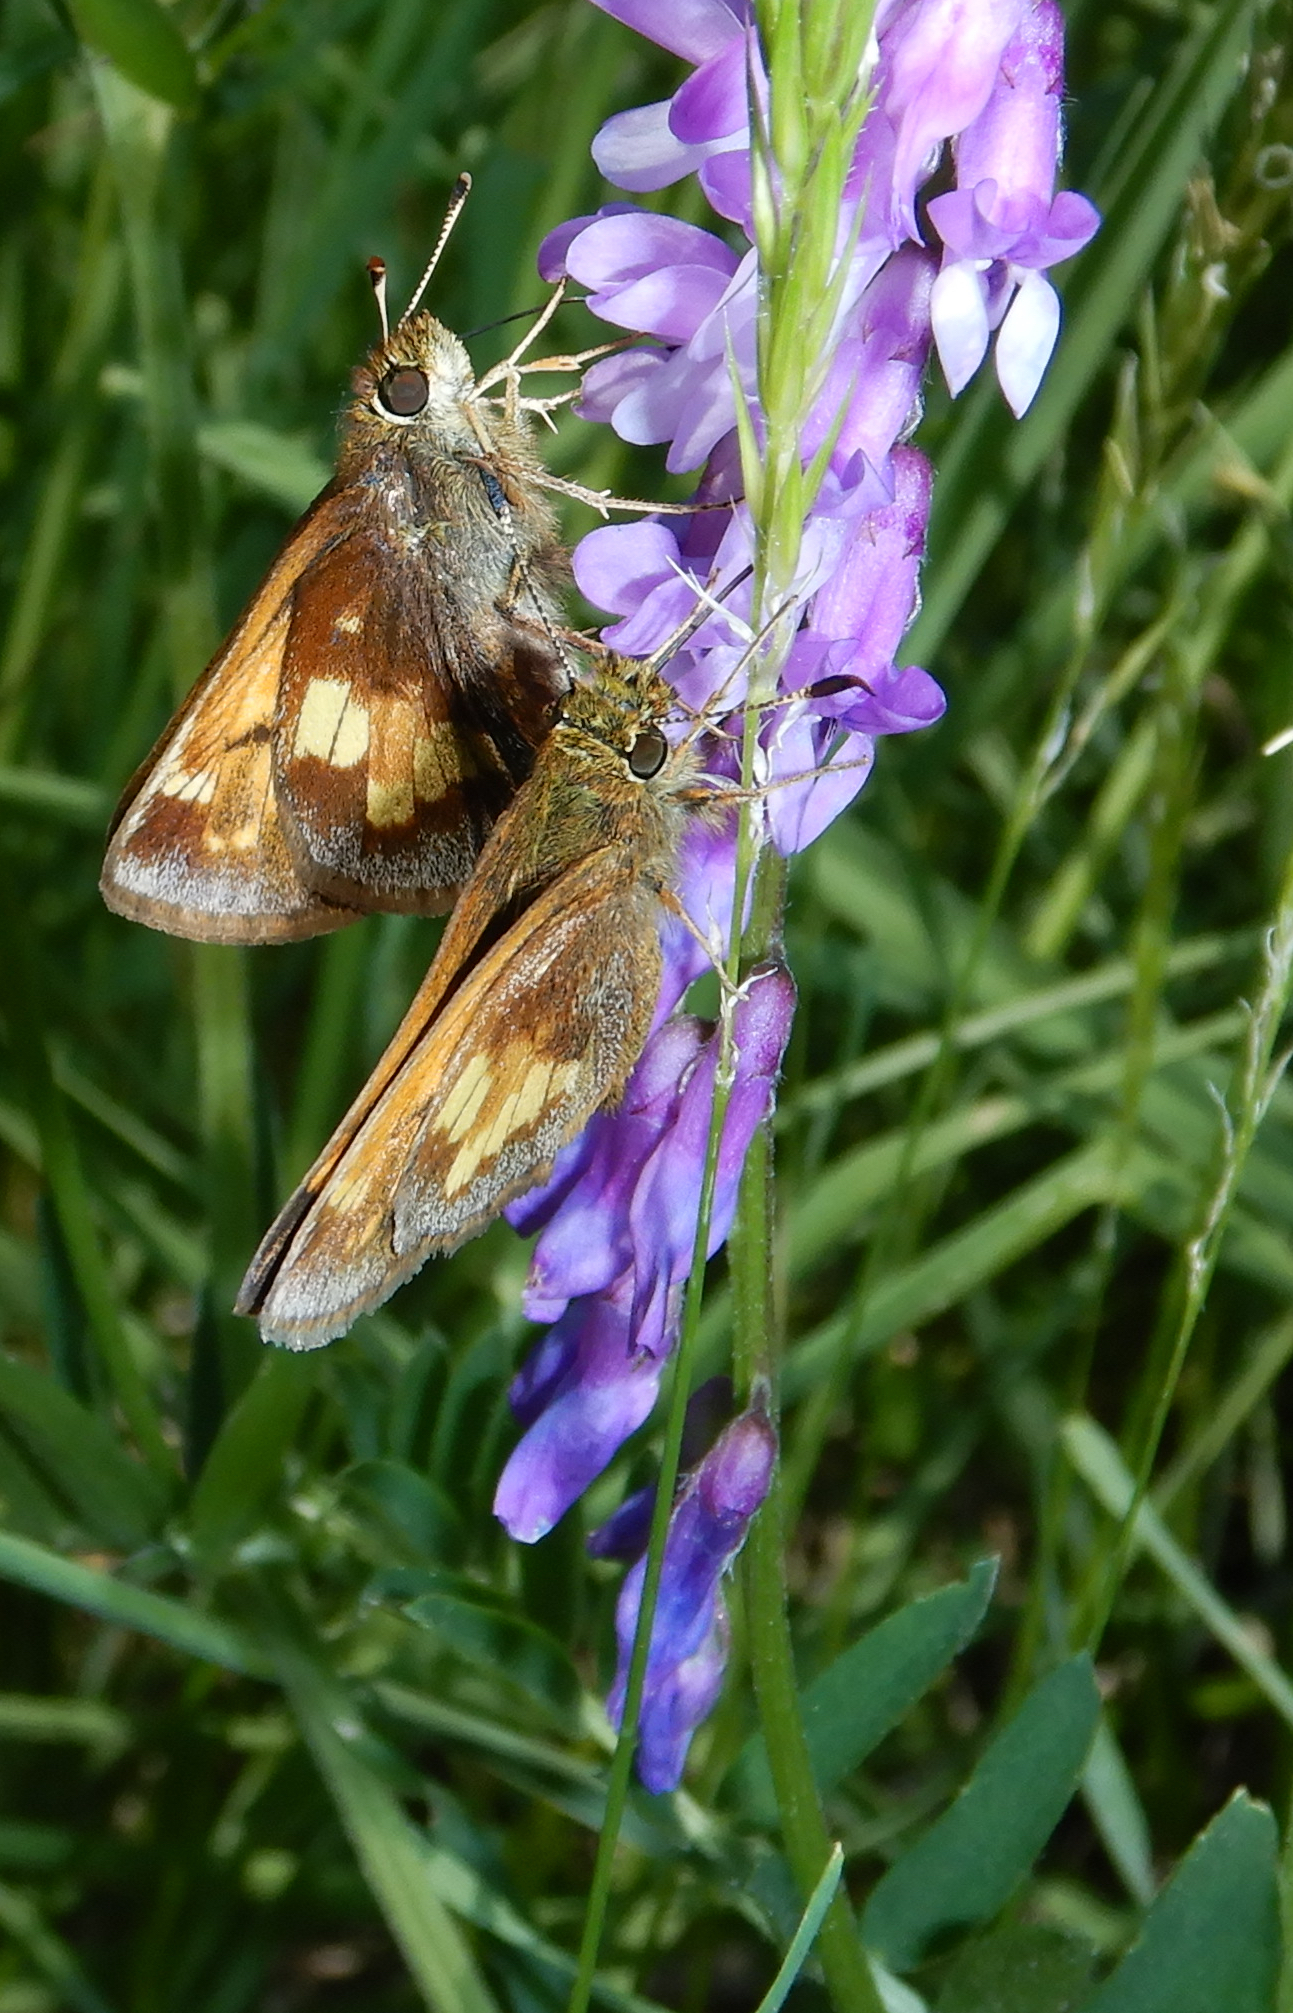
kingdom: Animalia
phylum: Arthropoda
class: Insecta
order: Lepidoptera
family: Hesperiidae
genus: Lon
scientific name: Lon hobomok
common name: Hobomok skipper
